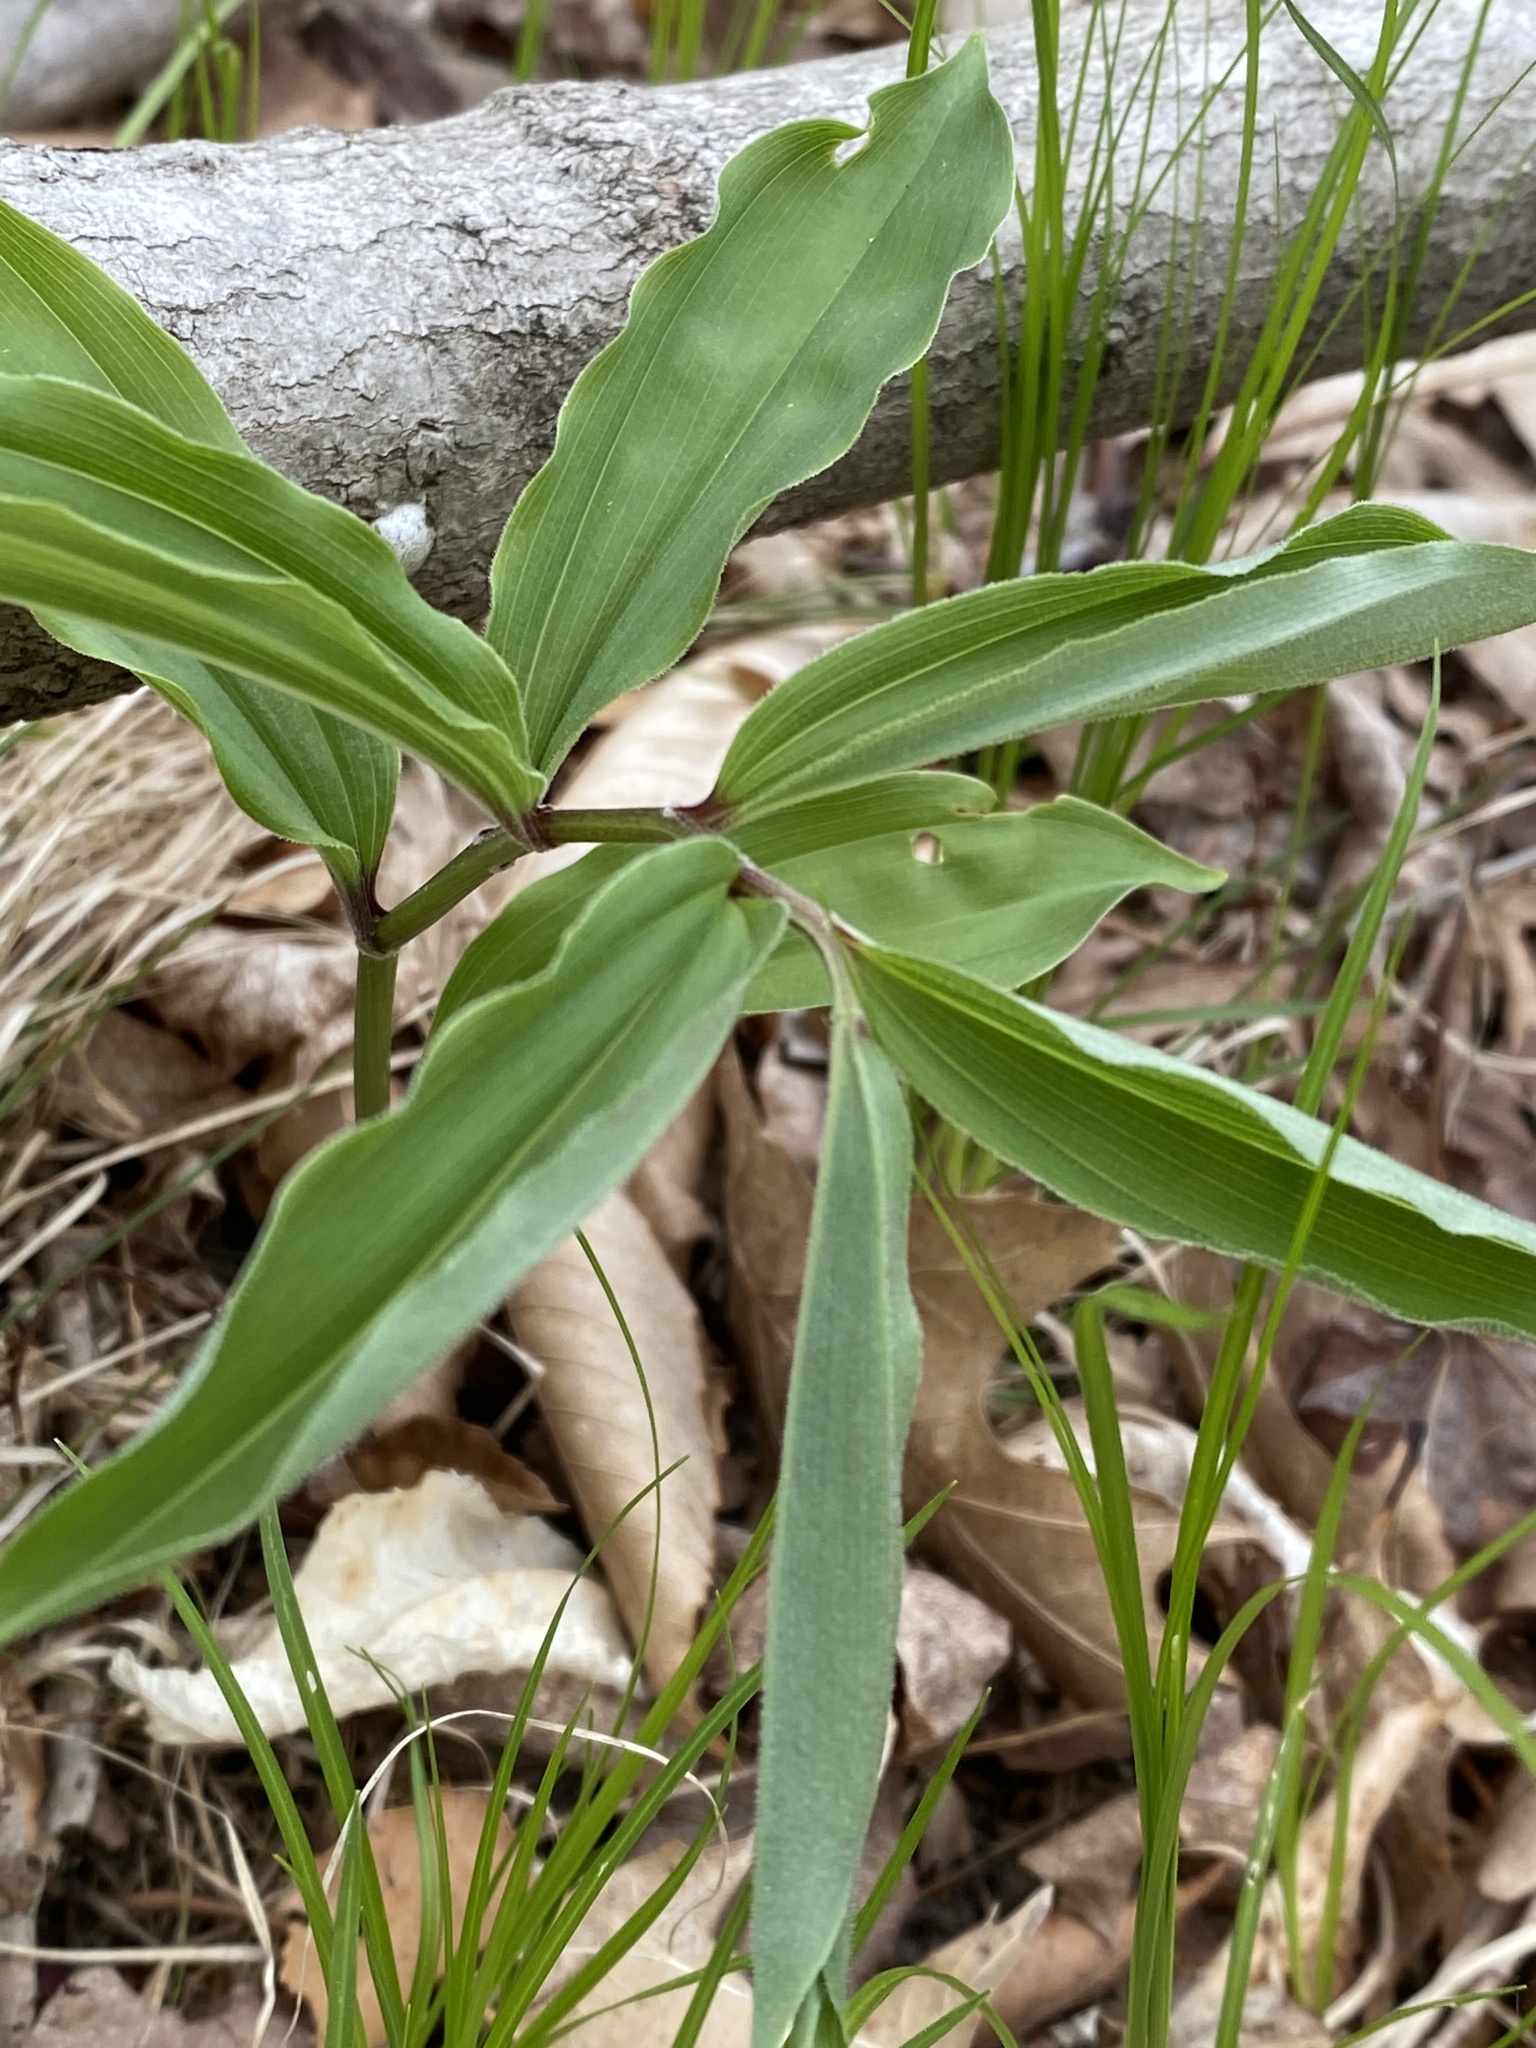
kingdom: Plantae
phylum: Tracheophyta
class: Liliopsida
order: Asparagales
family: Asparagaceae
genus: Maianthemum
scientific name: Maianthemum racemosum
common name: False spikenard
